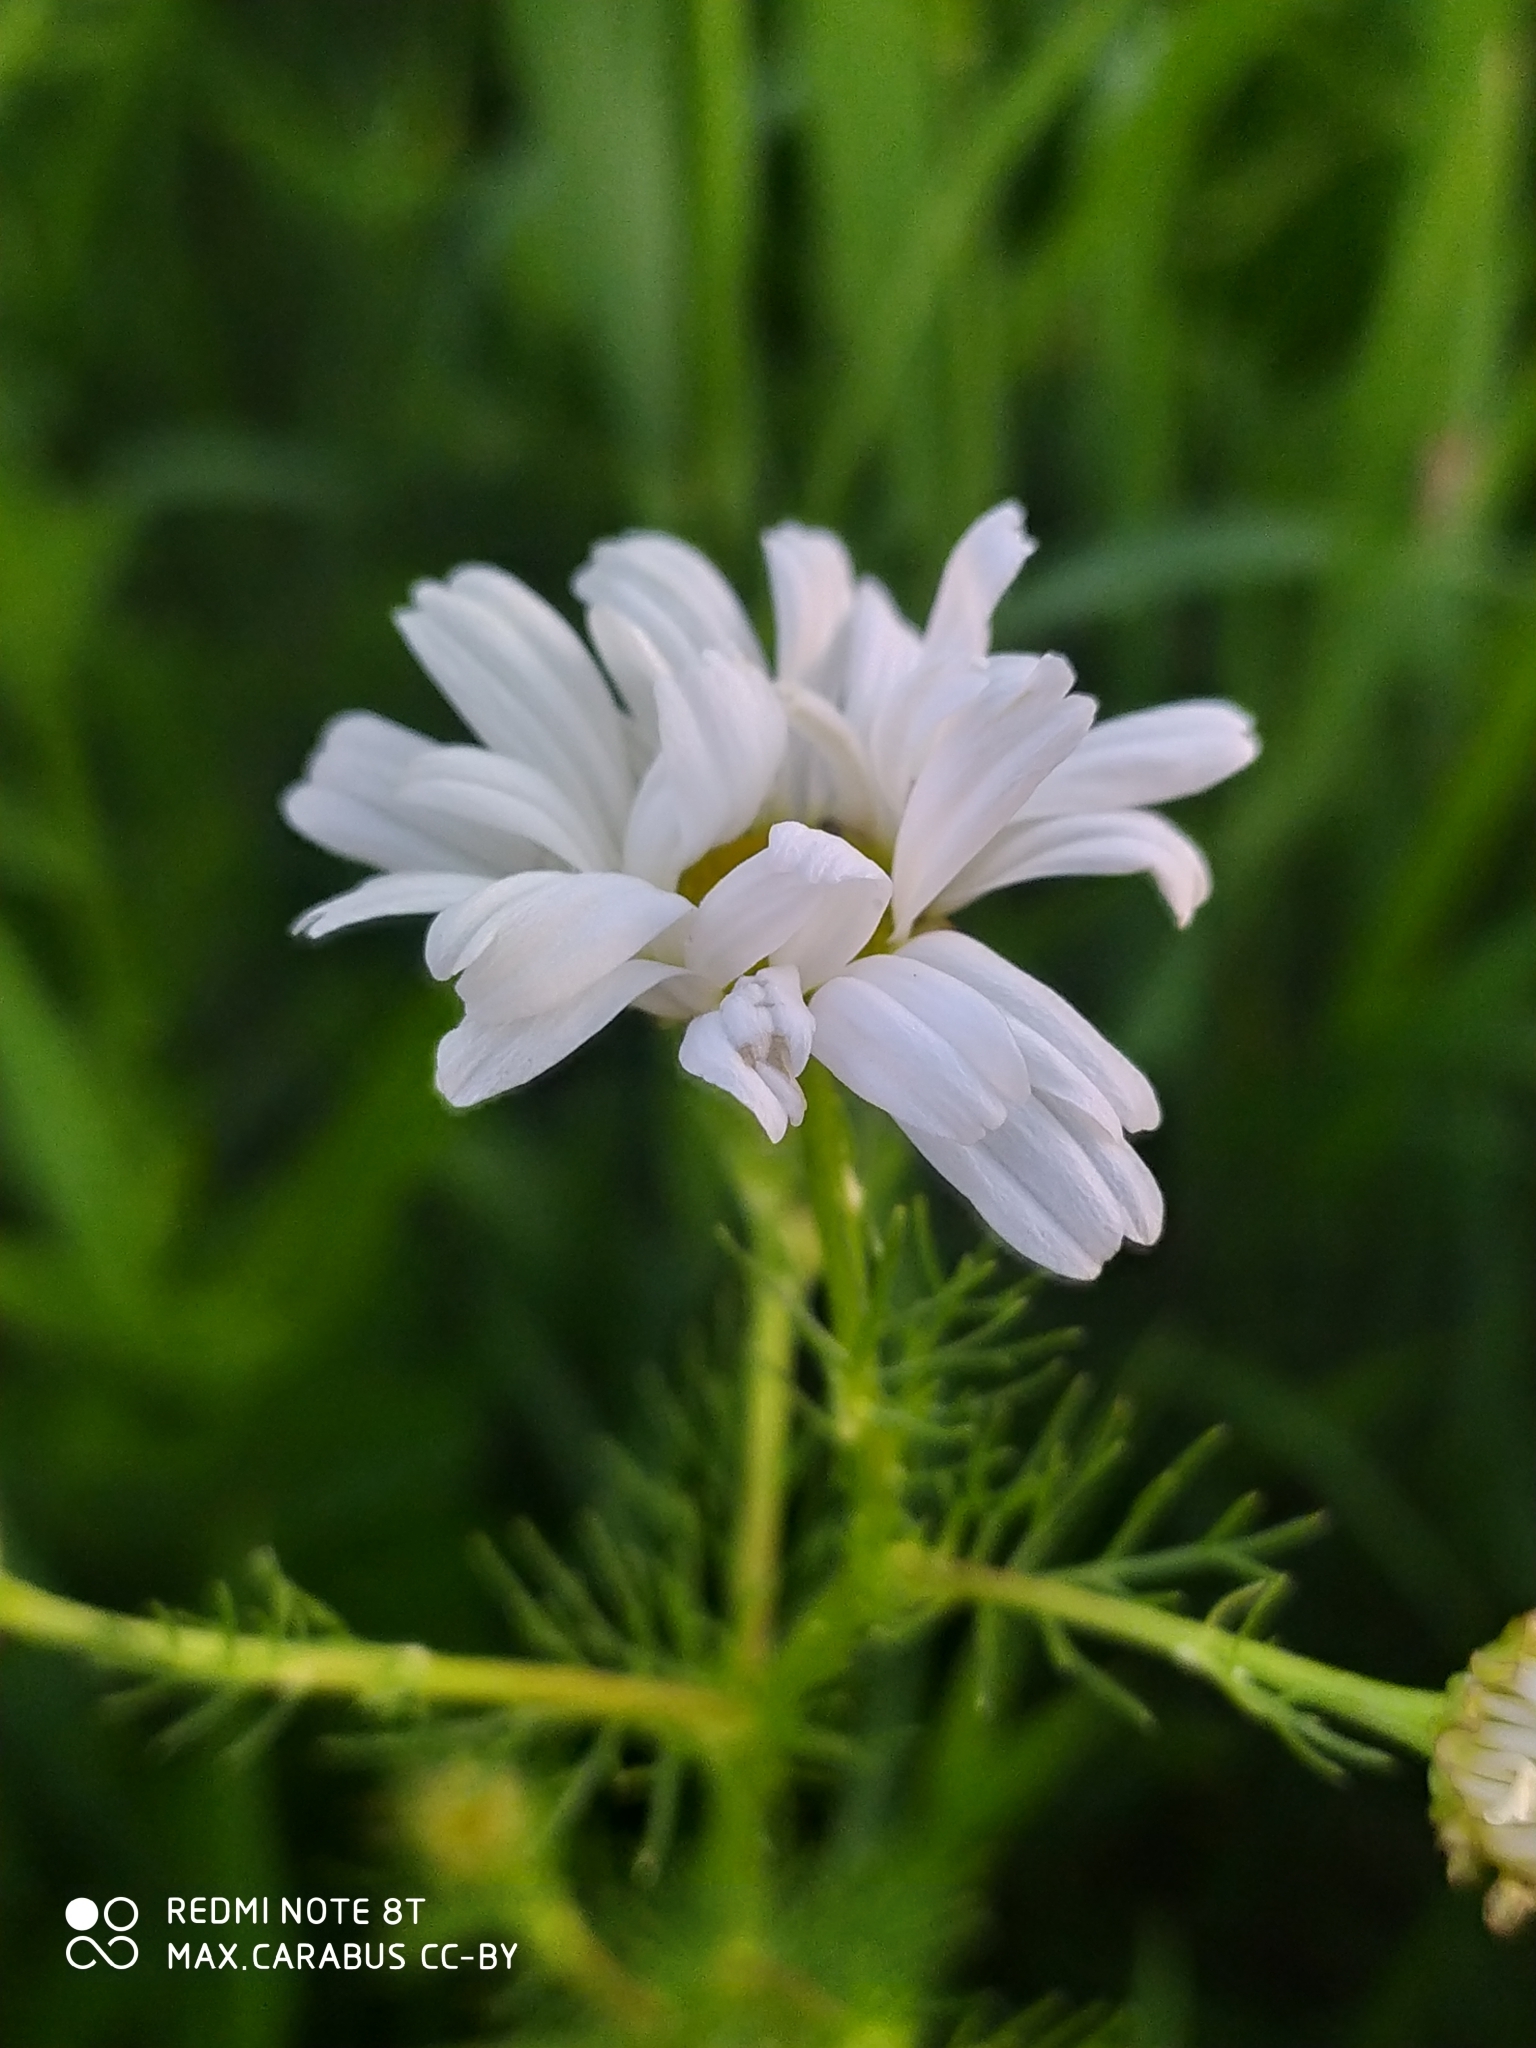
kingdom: Plantae
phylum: Tracheophyta
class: Magnoliopsida
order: Asterales
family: Asteraceae
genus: Tripleurospermum
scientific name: Tripleurospermum inodorum
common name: Scentless mayweed
